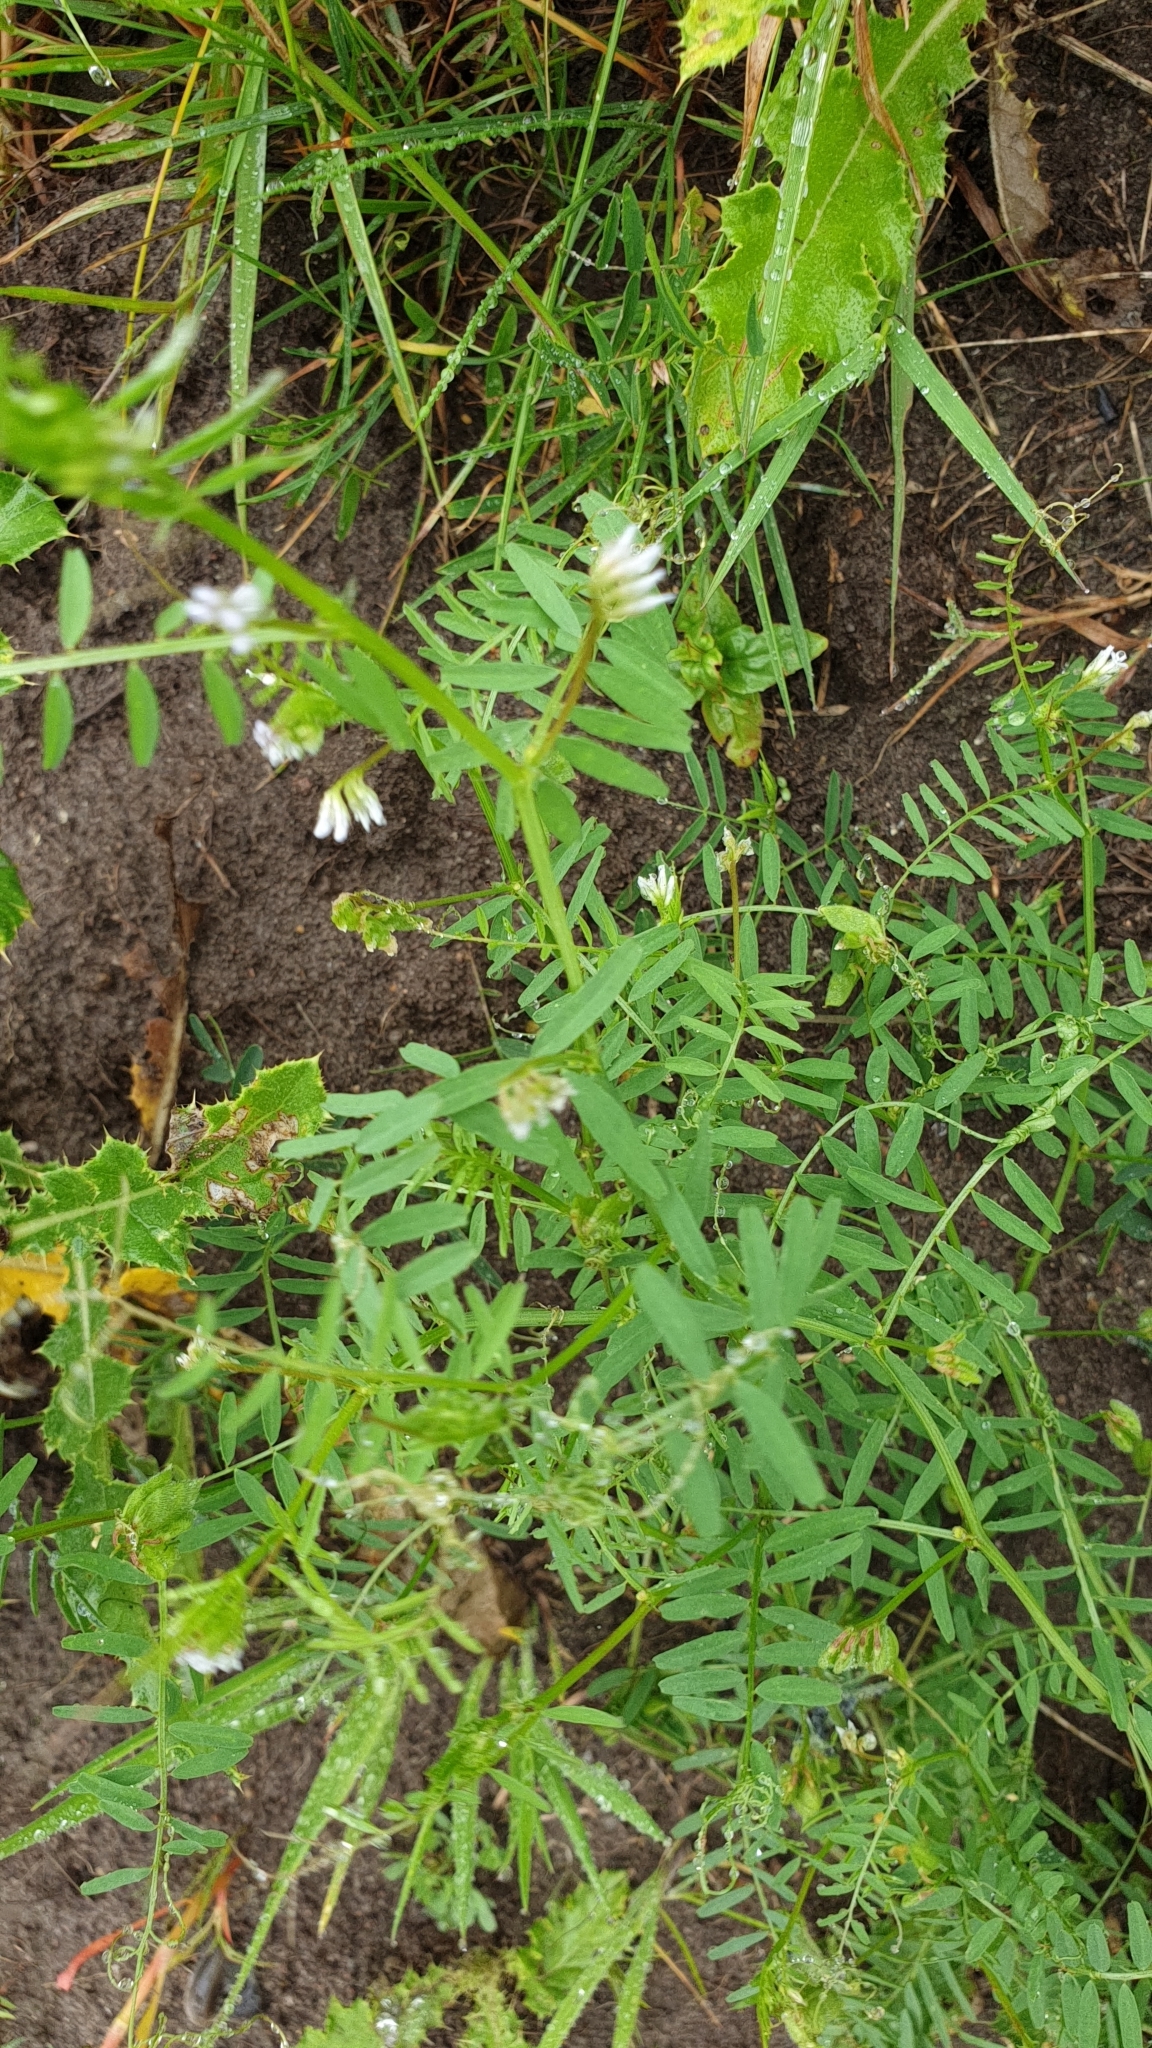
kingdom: Plantae
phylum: Tracheophyta
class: Magnoliopsida
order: Fabales
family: Fabaceae
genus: Vicia
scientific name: Vicia hirsuta
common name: Tiny vetch
